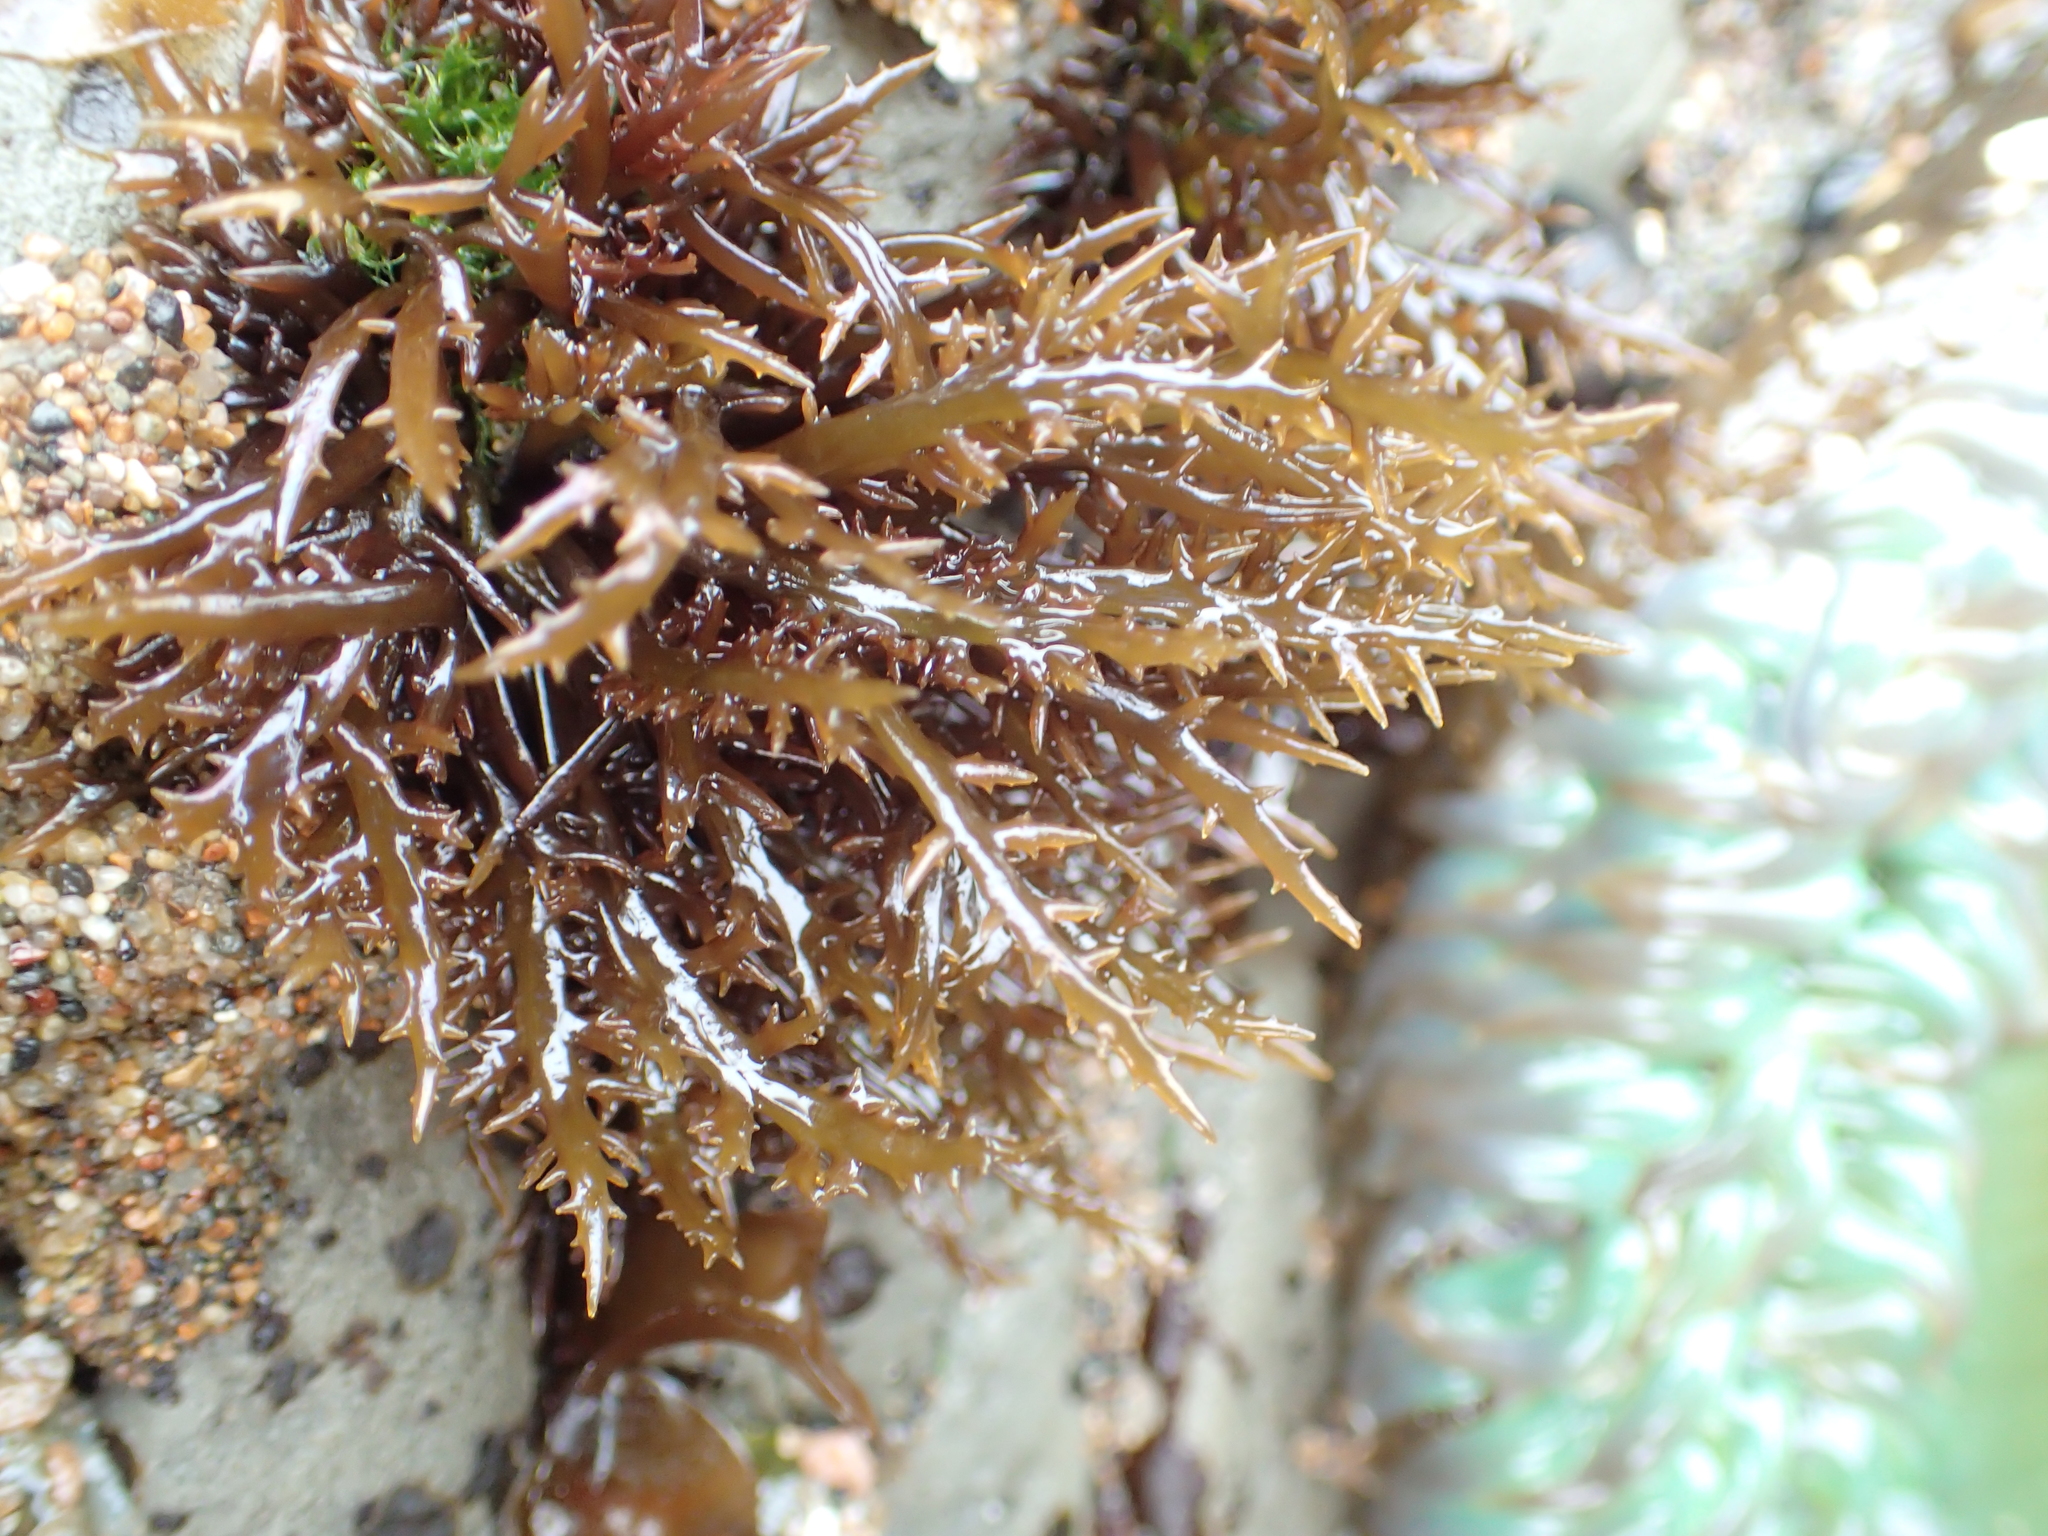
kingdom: Plantae
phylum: Rhodophyta
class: Florideophyceae
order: Gigartinales
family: Gigartinaceae
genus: Chondracanthus
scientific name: Chondracanthus canaliculatus
